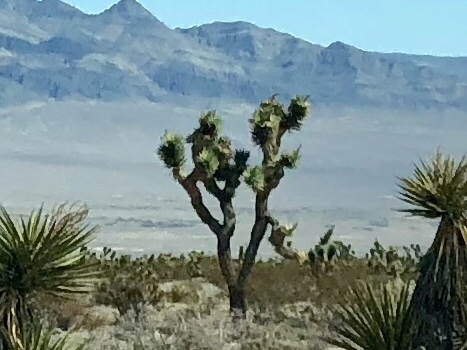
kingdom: Plantae
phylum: Tracheophyta
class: Liliopsida
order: Asparagales
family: Asparagaceae
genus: Yucca
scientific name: Yucca brevifolia
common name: Joshua tree
